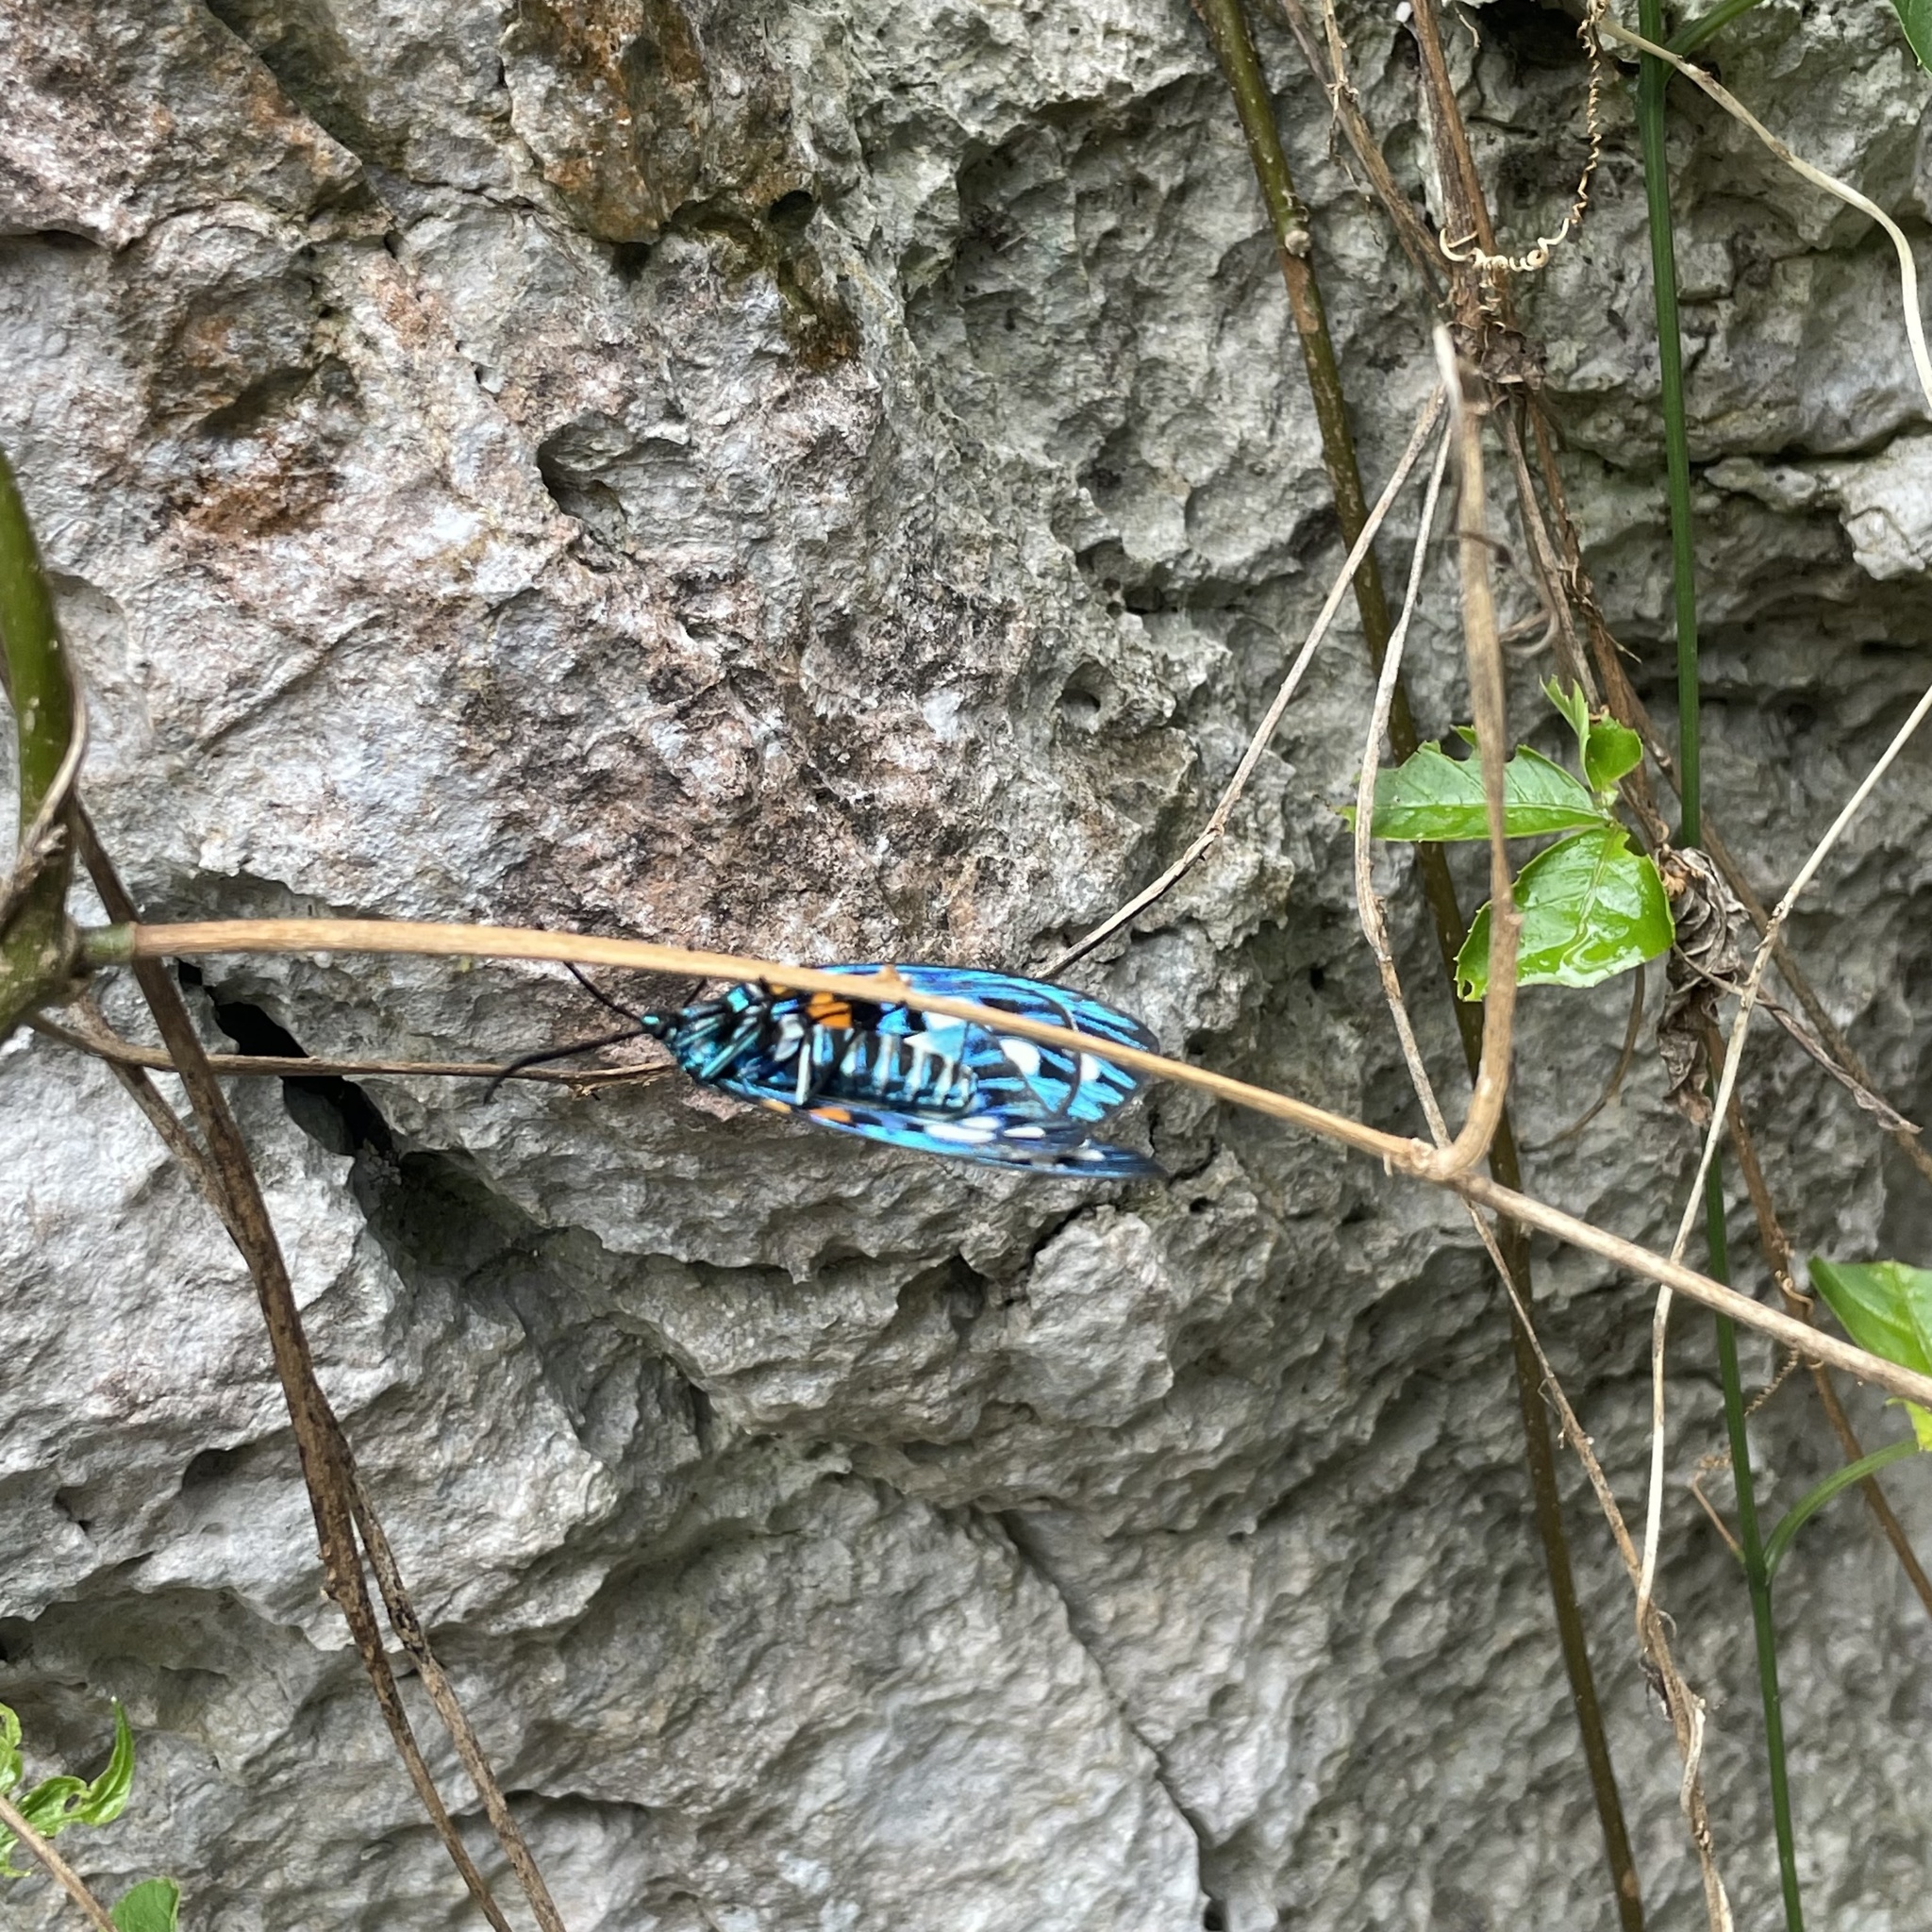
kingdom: Animalia
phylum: Arthropoda
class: Insecta
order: Lepidoptera
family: Zygaenidae
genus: Erasmia
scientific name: Erasmia sangaica
